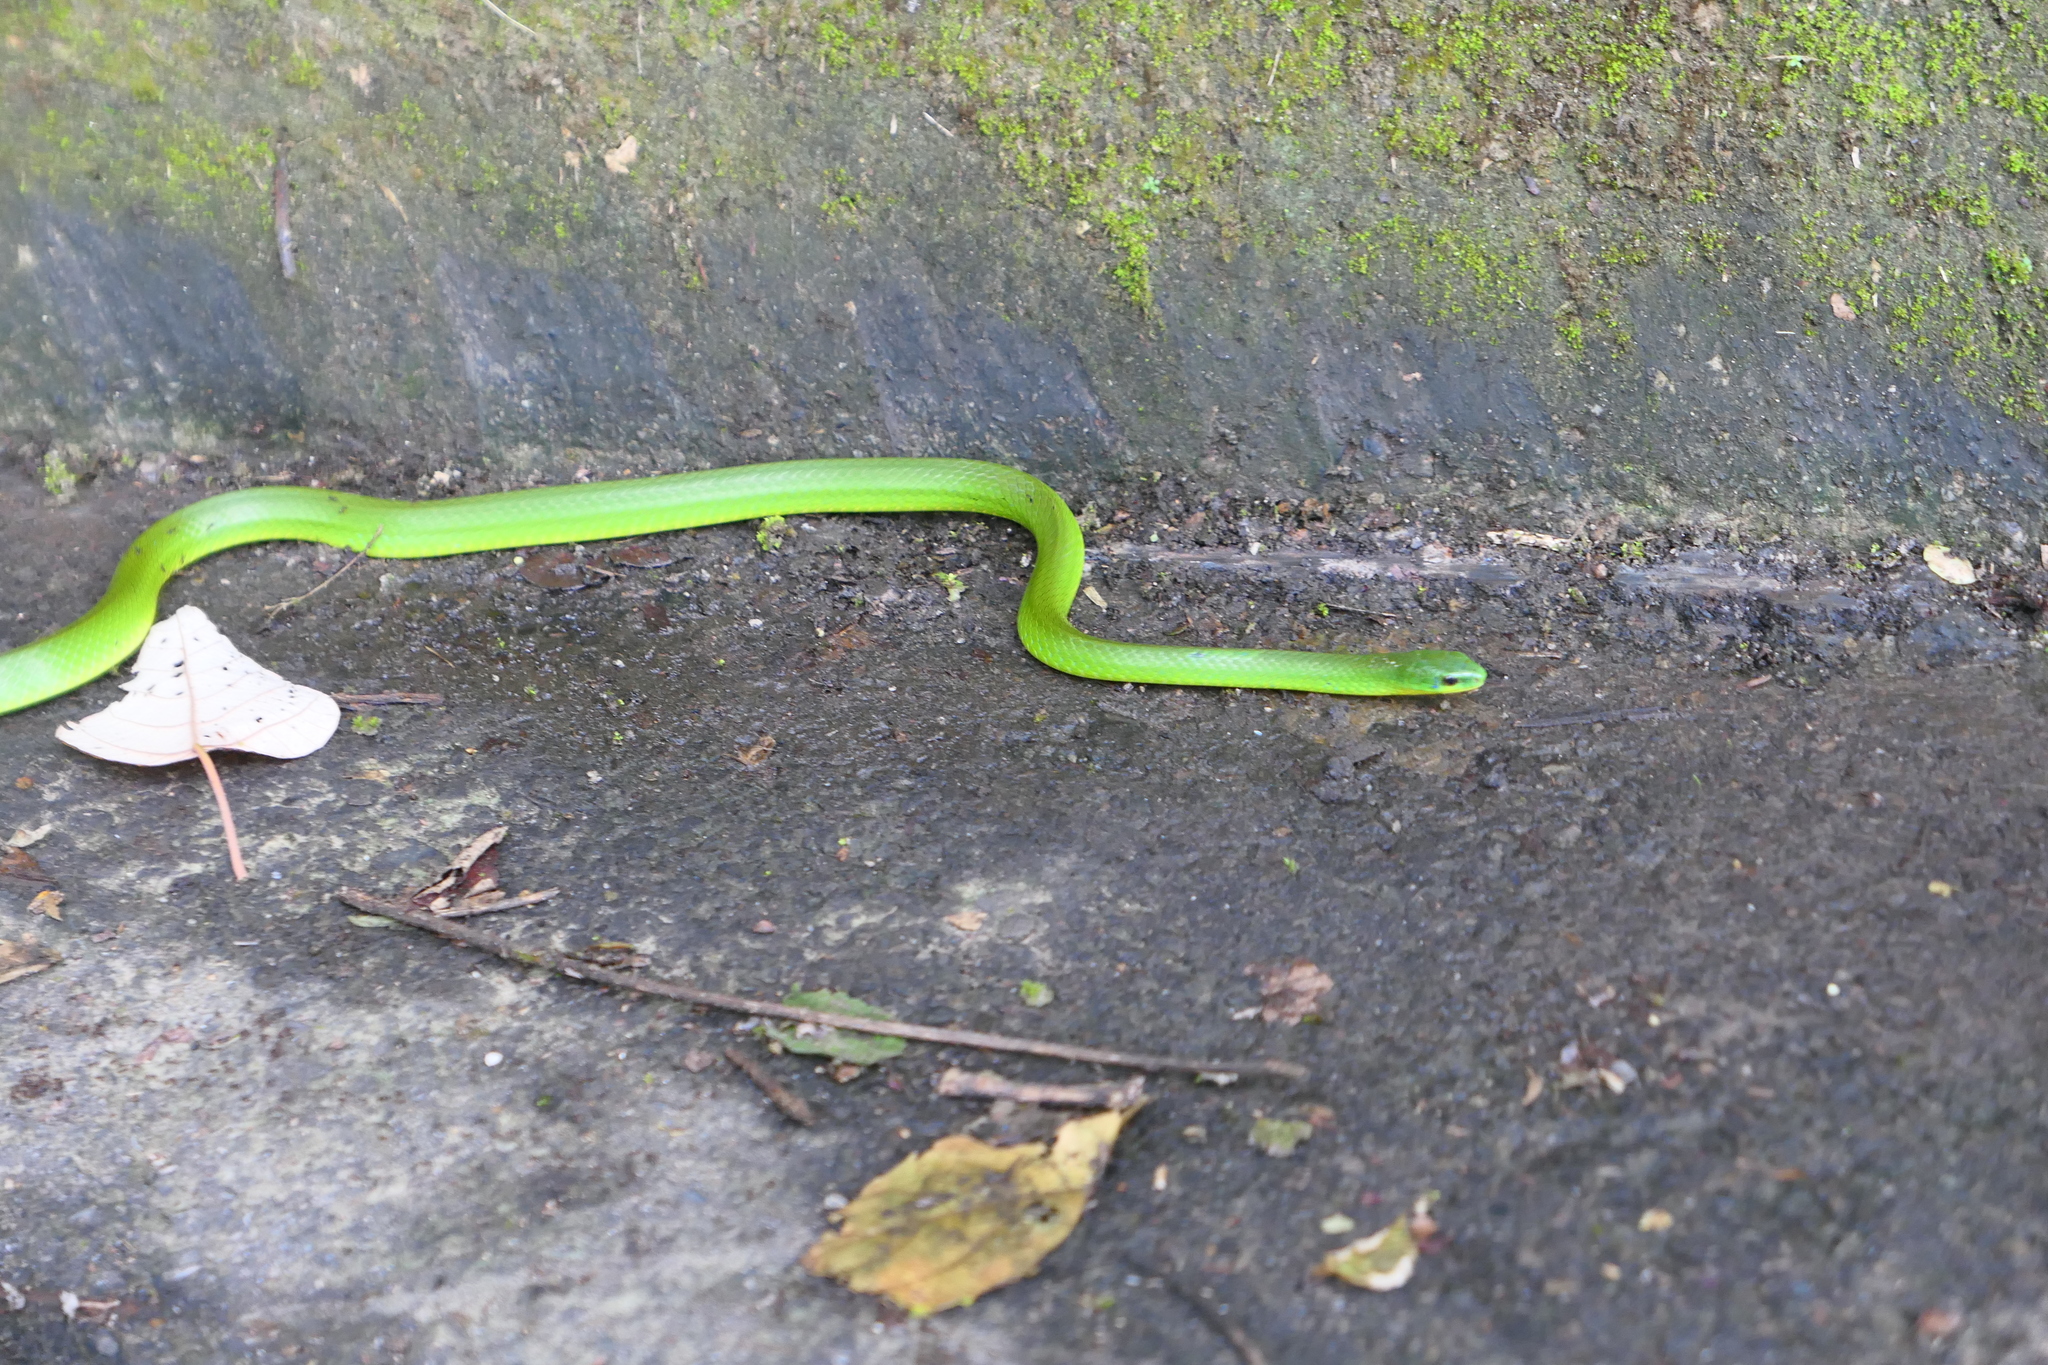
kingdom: Animalia
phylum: Chordata
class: Squamata
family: Colubridae
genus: Ptyas
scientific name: Ptyas major
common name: Chinese green snake
